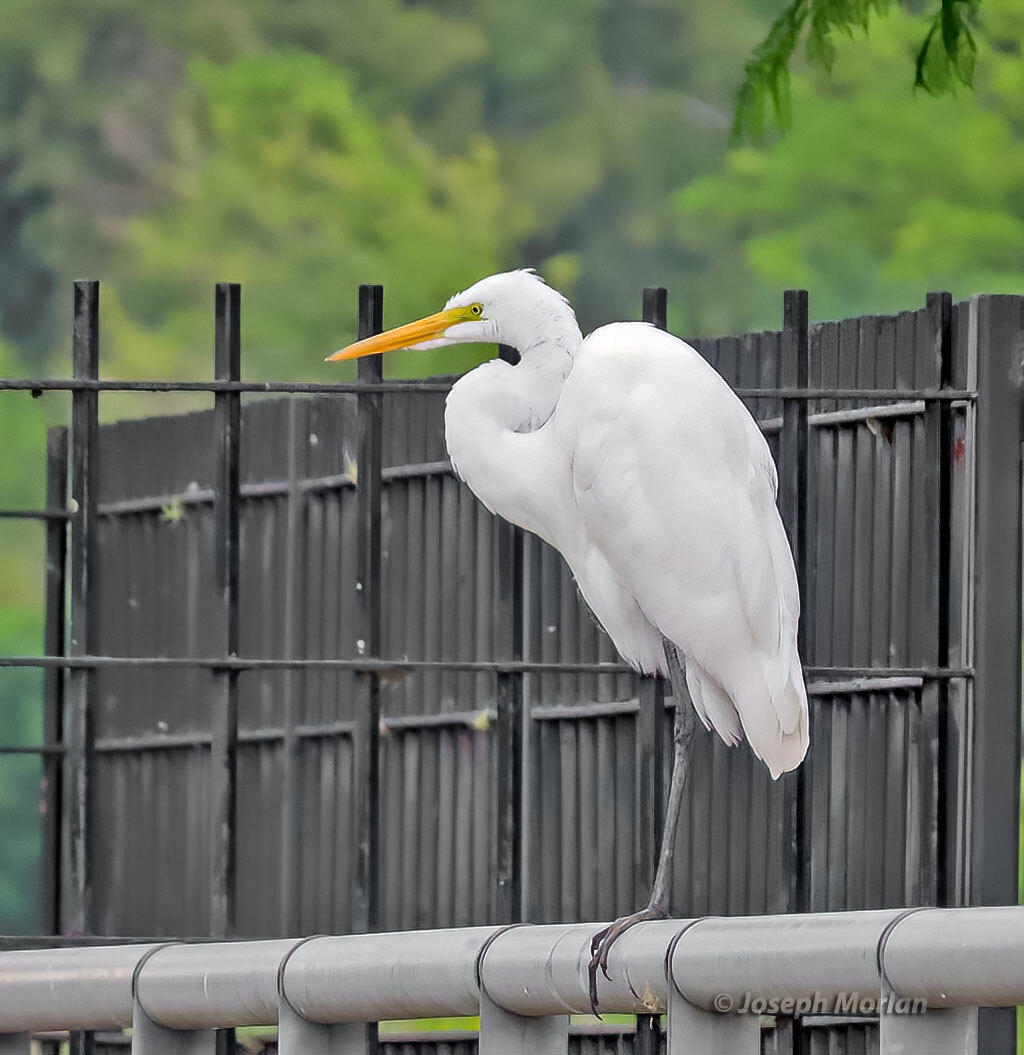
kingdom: Animalia
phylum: Chordata
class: Aves
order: Pelecaniformes
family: Ardeidae
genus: Ardea
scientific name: Ardea alba
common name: Great egret
